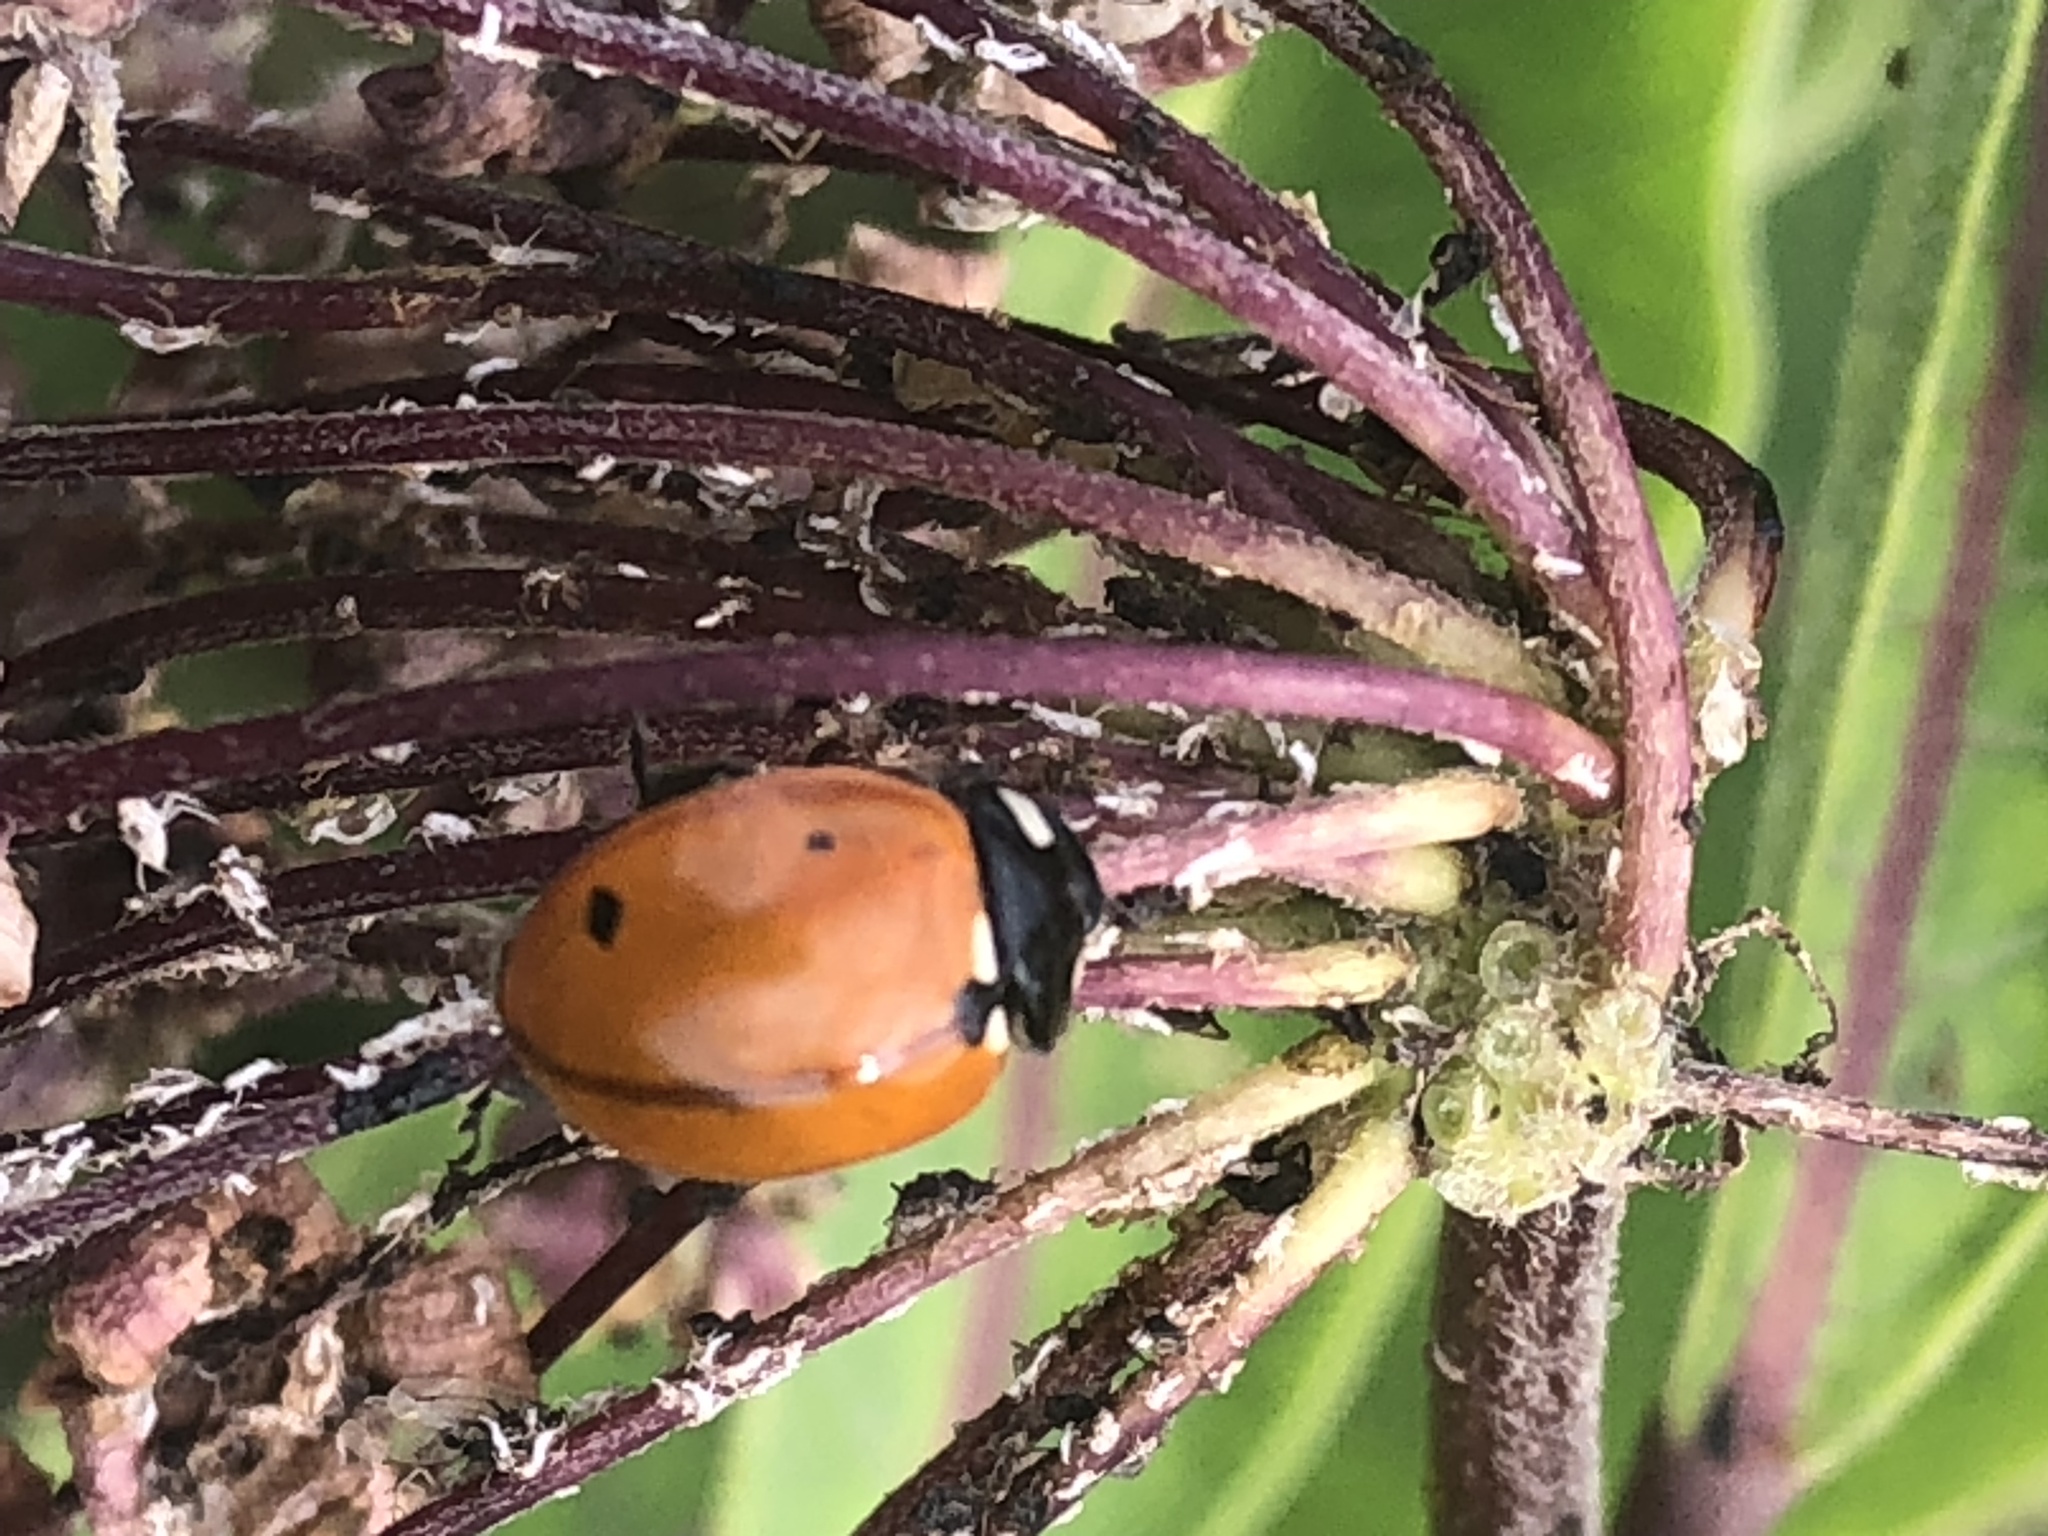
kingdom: Animalia
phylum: Arthropoda
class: Insecta
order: Coleoptera
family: Coccinellidae
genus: Coccinella
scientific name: Coccinella septempunctata
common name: Sevenspotted lady beetle
